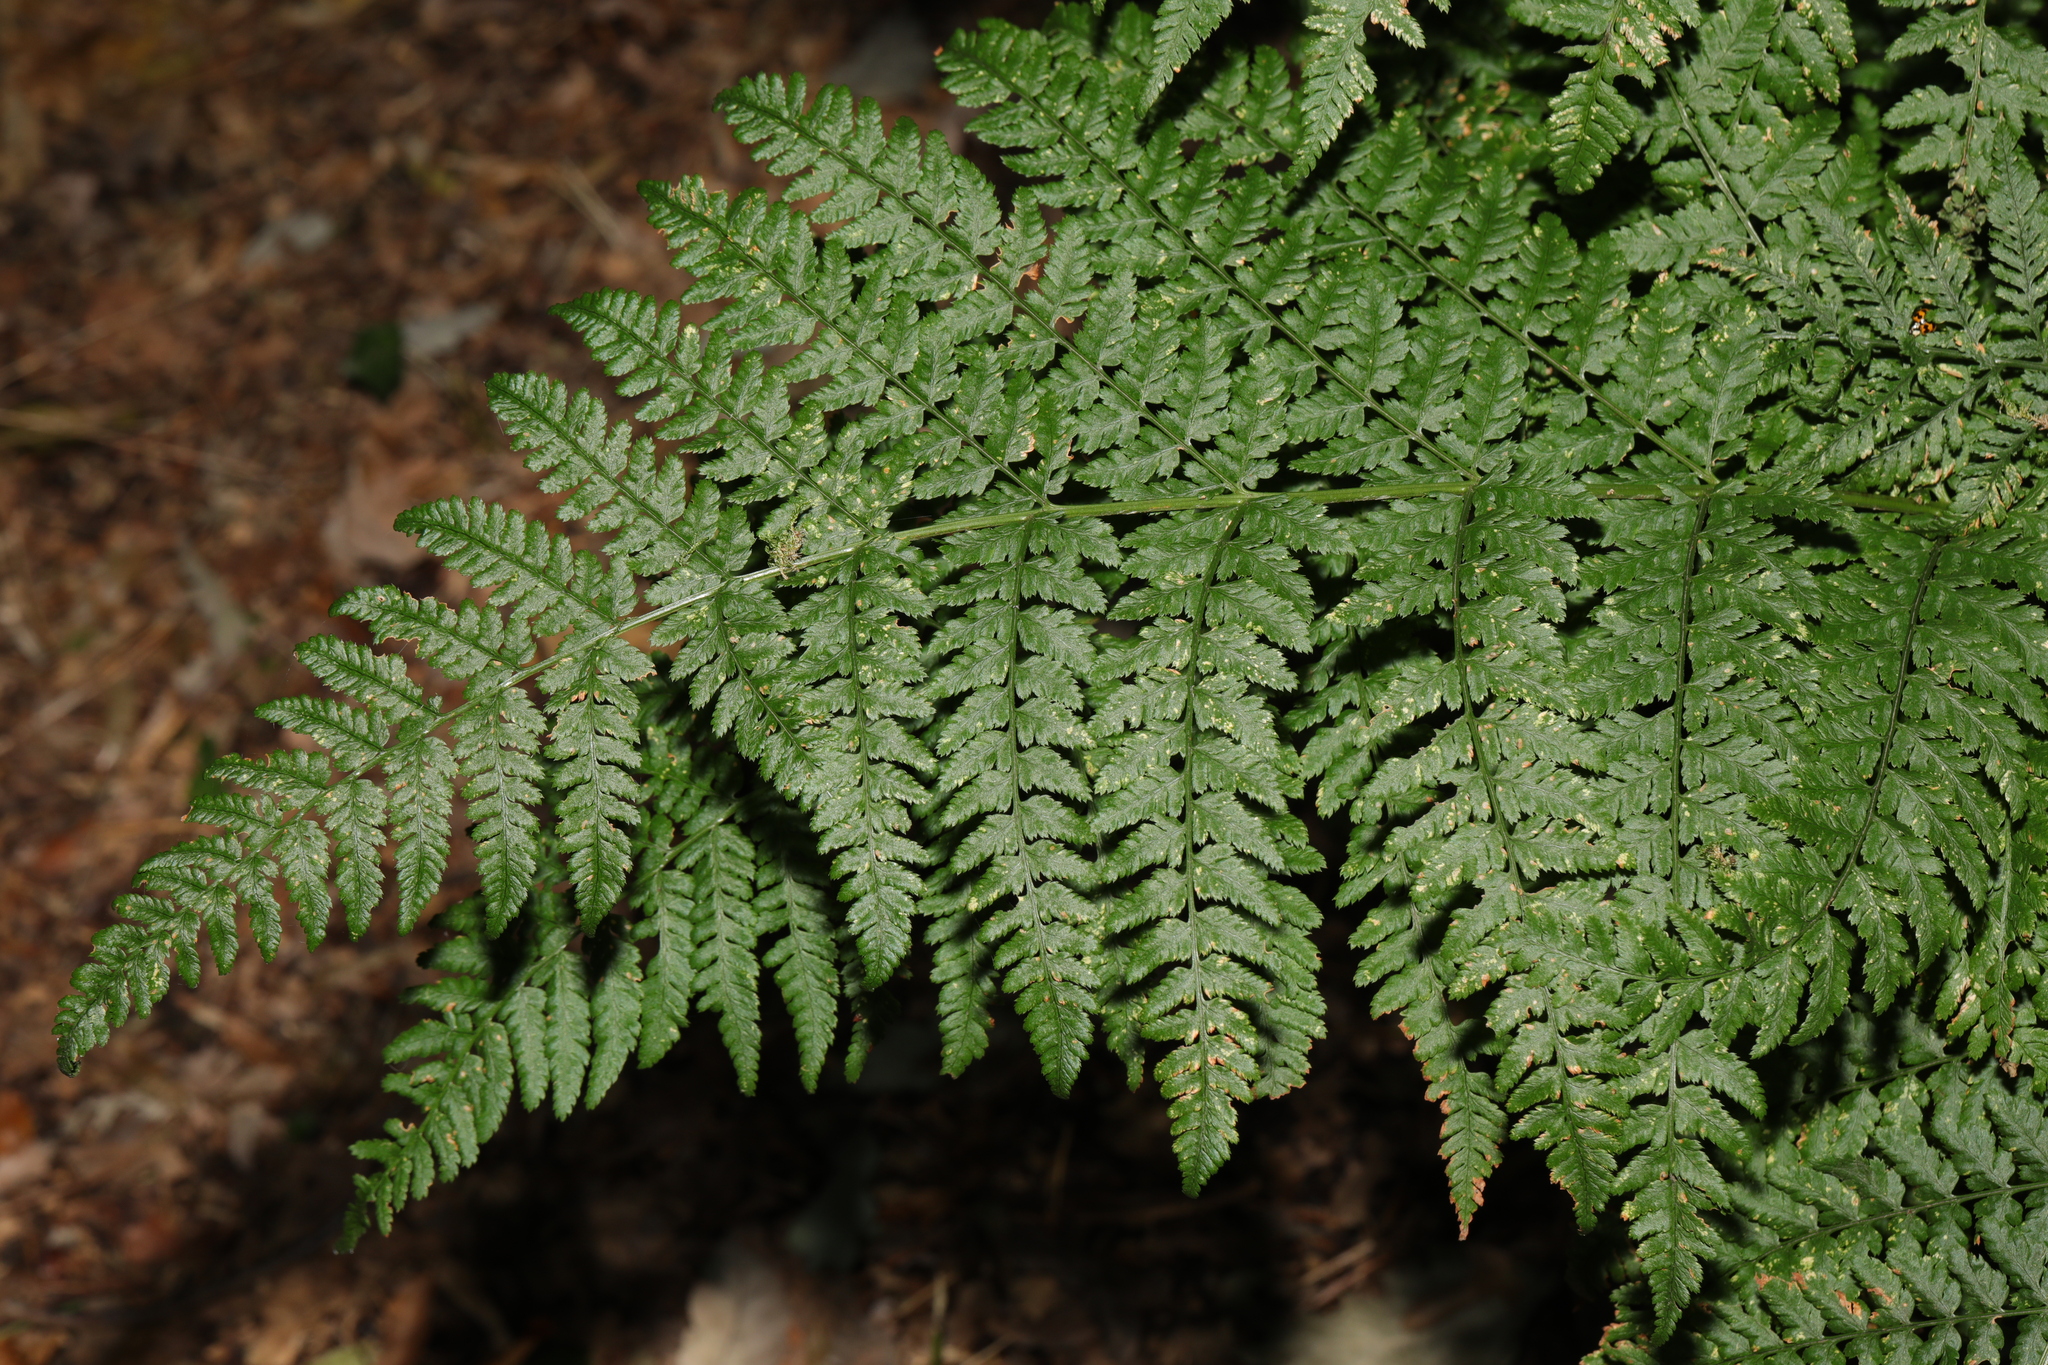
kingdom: Plantae
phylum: Tracheophyta
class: Polypodiopsida
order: Polypodiales
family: Dryopteridaceae
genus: Dryopteris
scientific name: Dryopteris dilatata
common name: Broad buckler-fern
